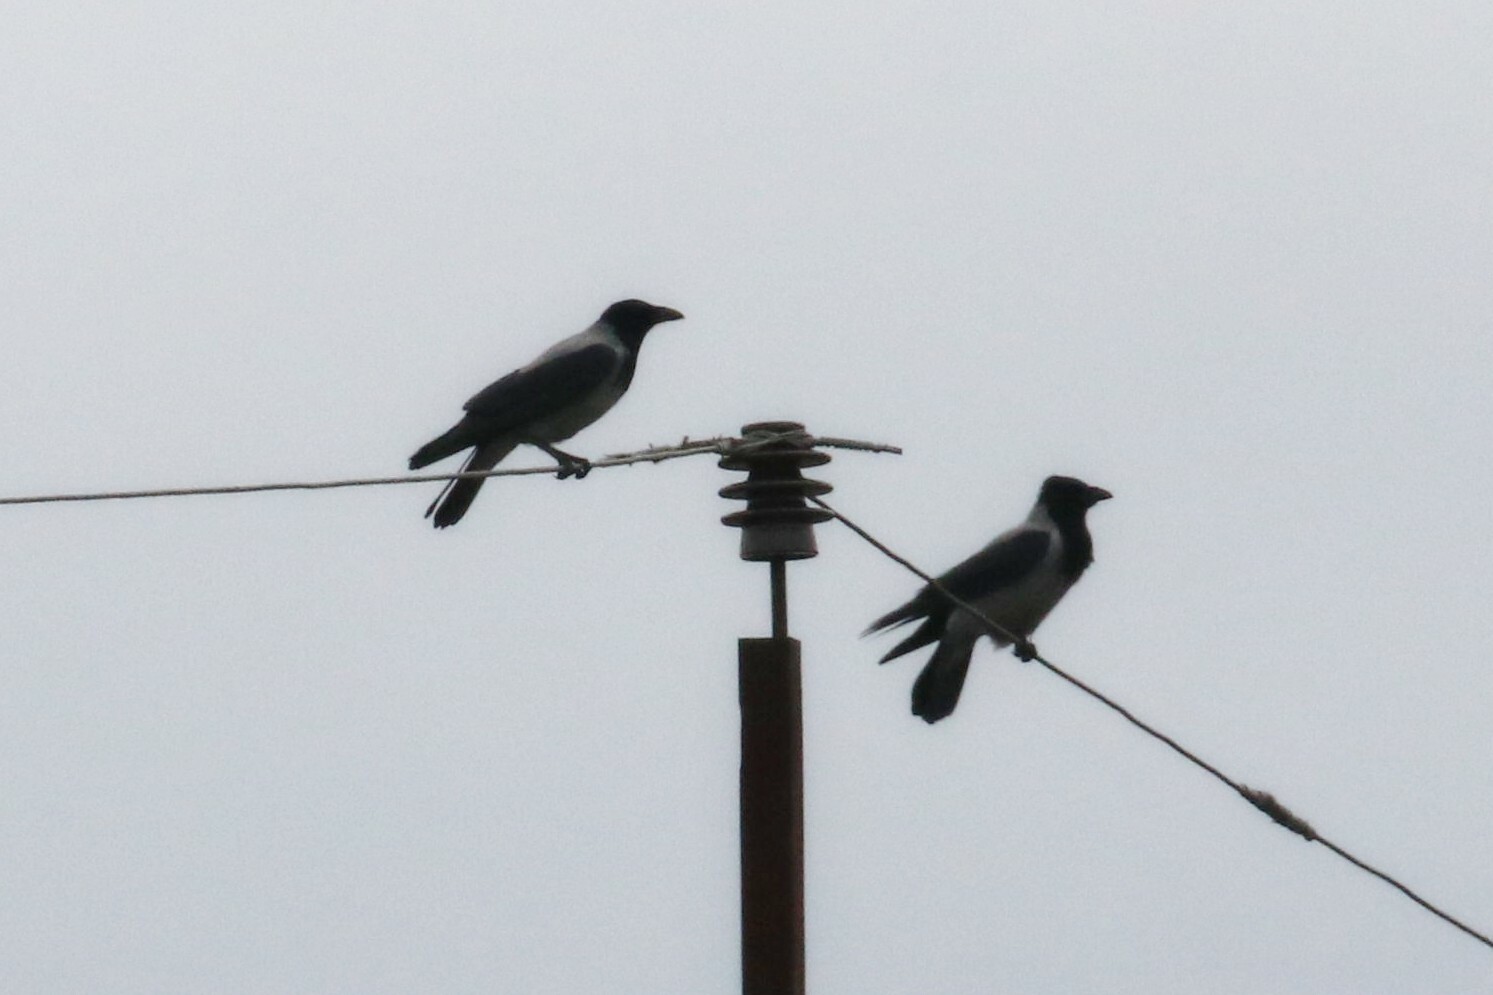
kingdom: Animalia
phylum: Chordata
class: Aves
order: Passeriformes
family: Corvidae
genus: Corvus
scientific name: Corvus cornix
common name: Hooded crow
